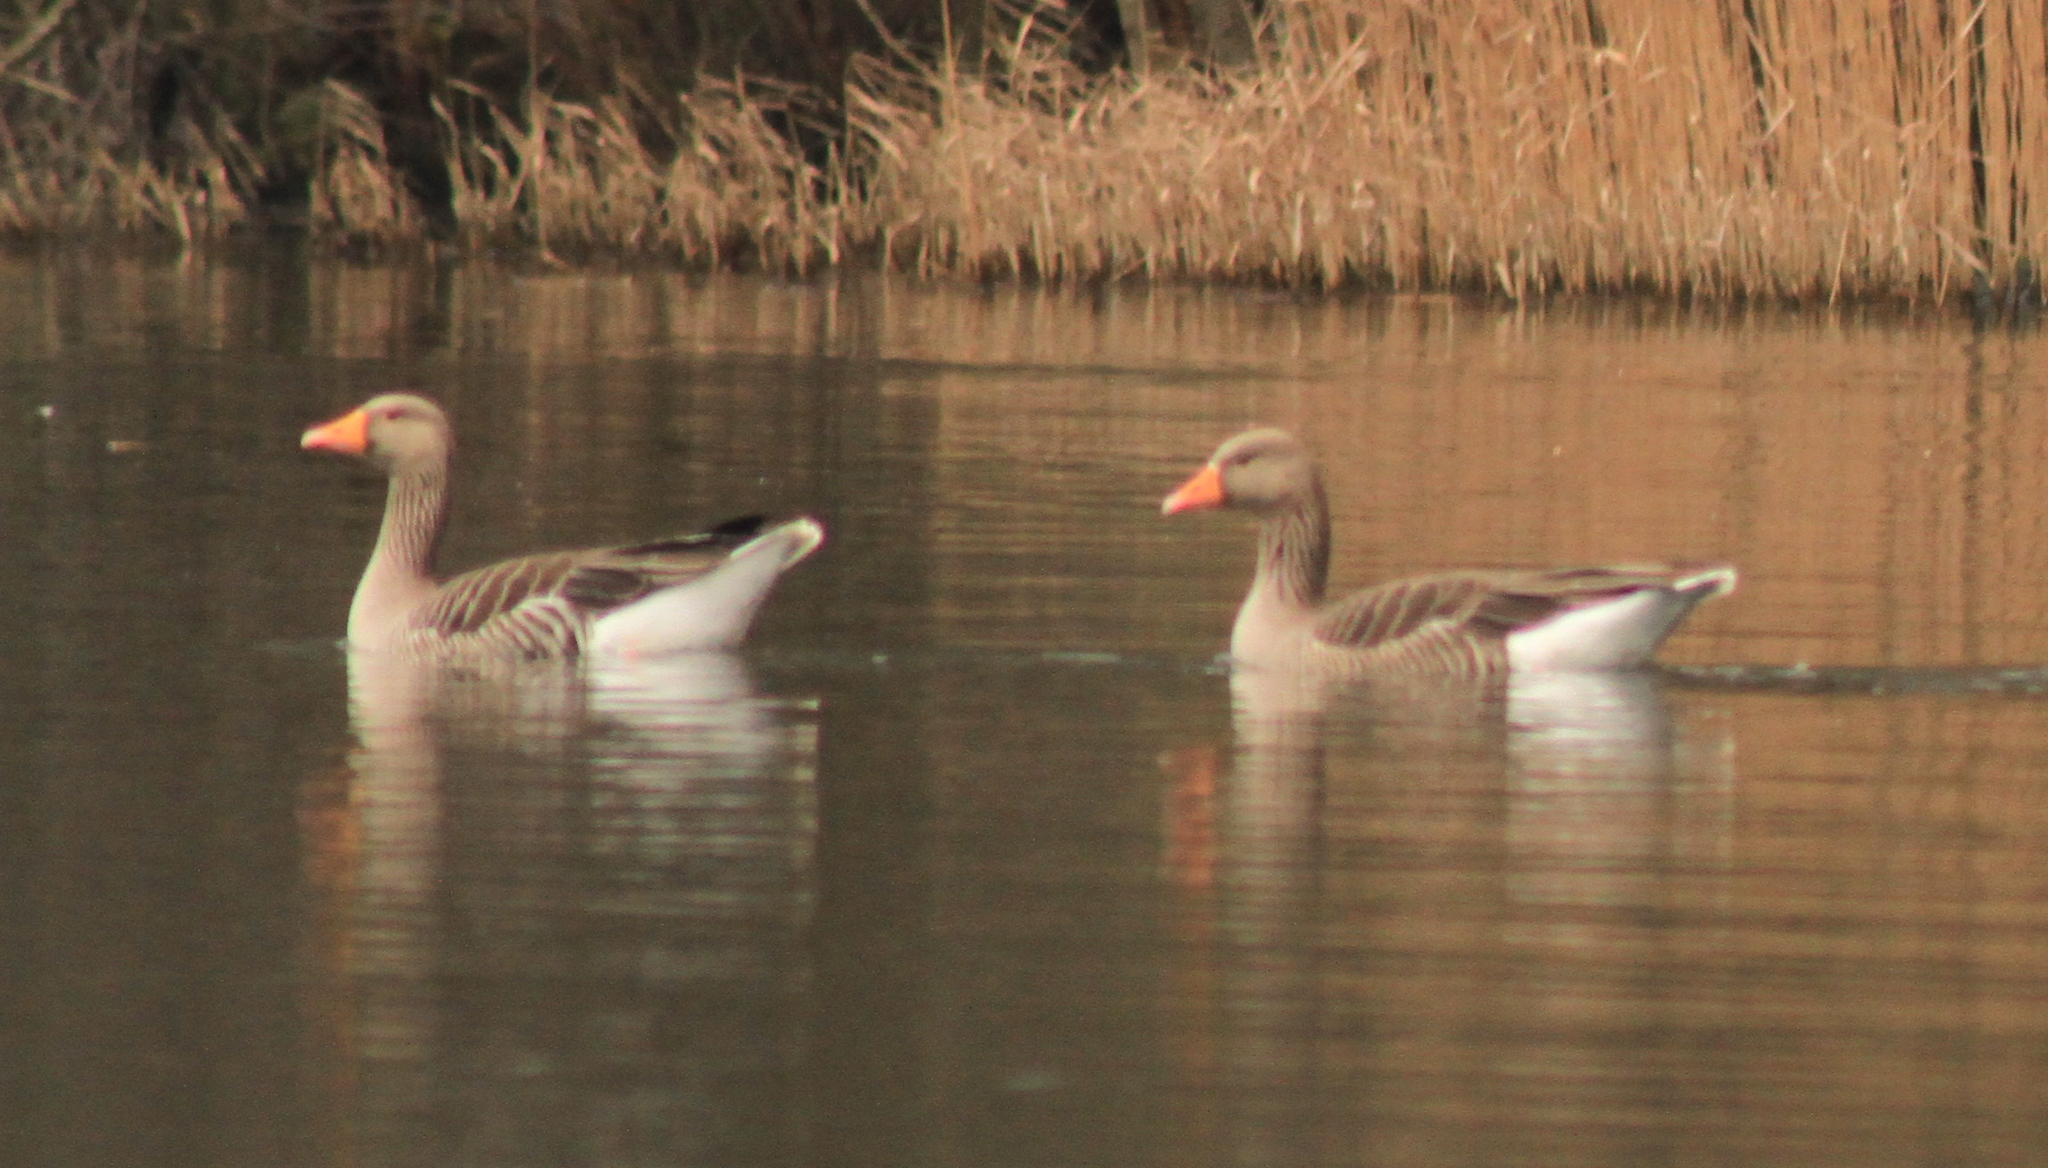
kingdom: Animalia
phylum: Chordata
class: Aves
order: Anseriformes
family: Anatidae
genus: Anser
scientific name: Anser anser
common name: Greylag goose
